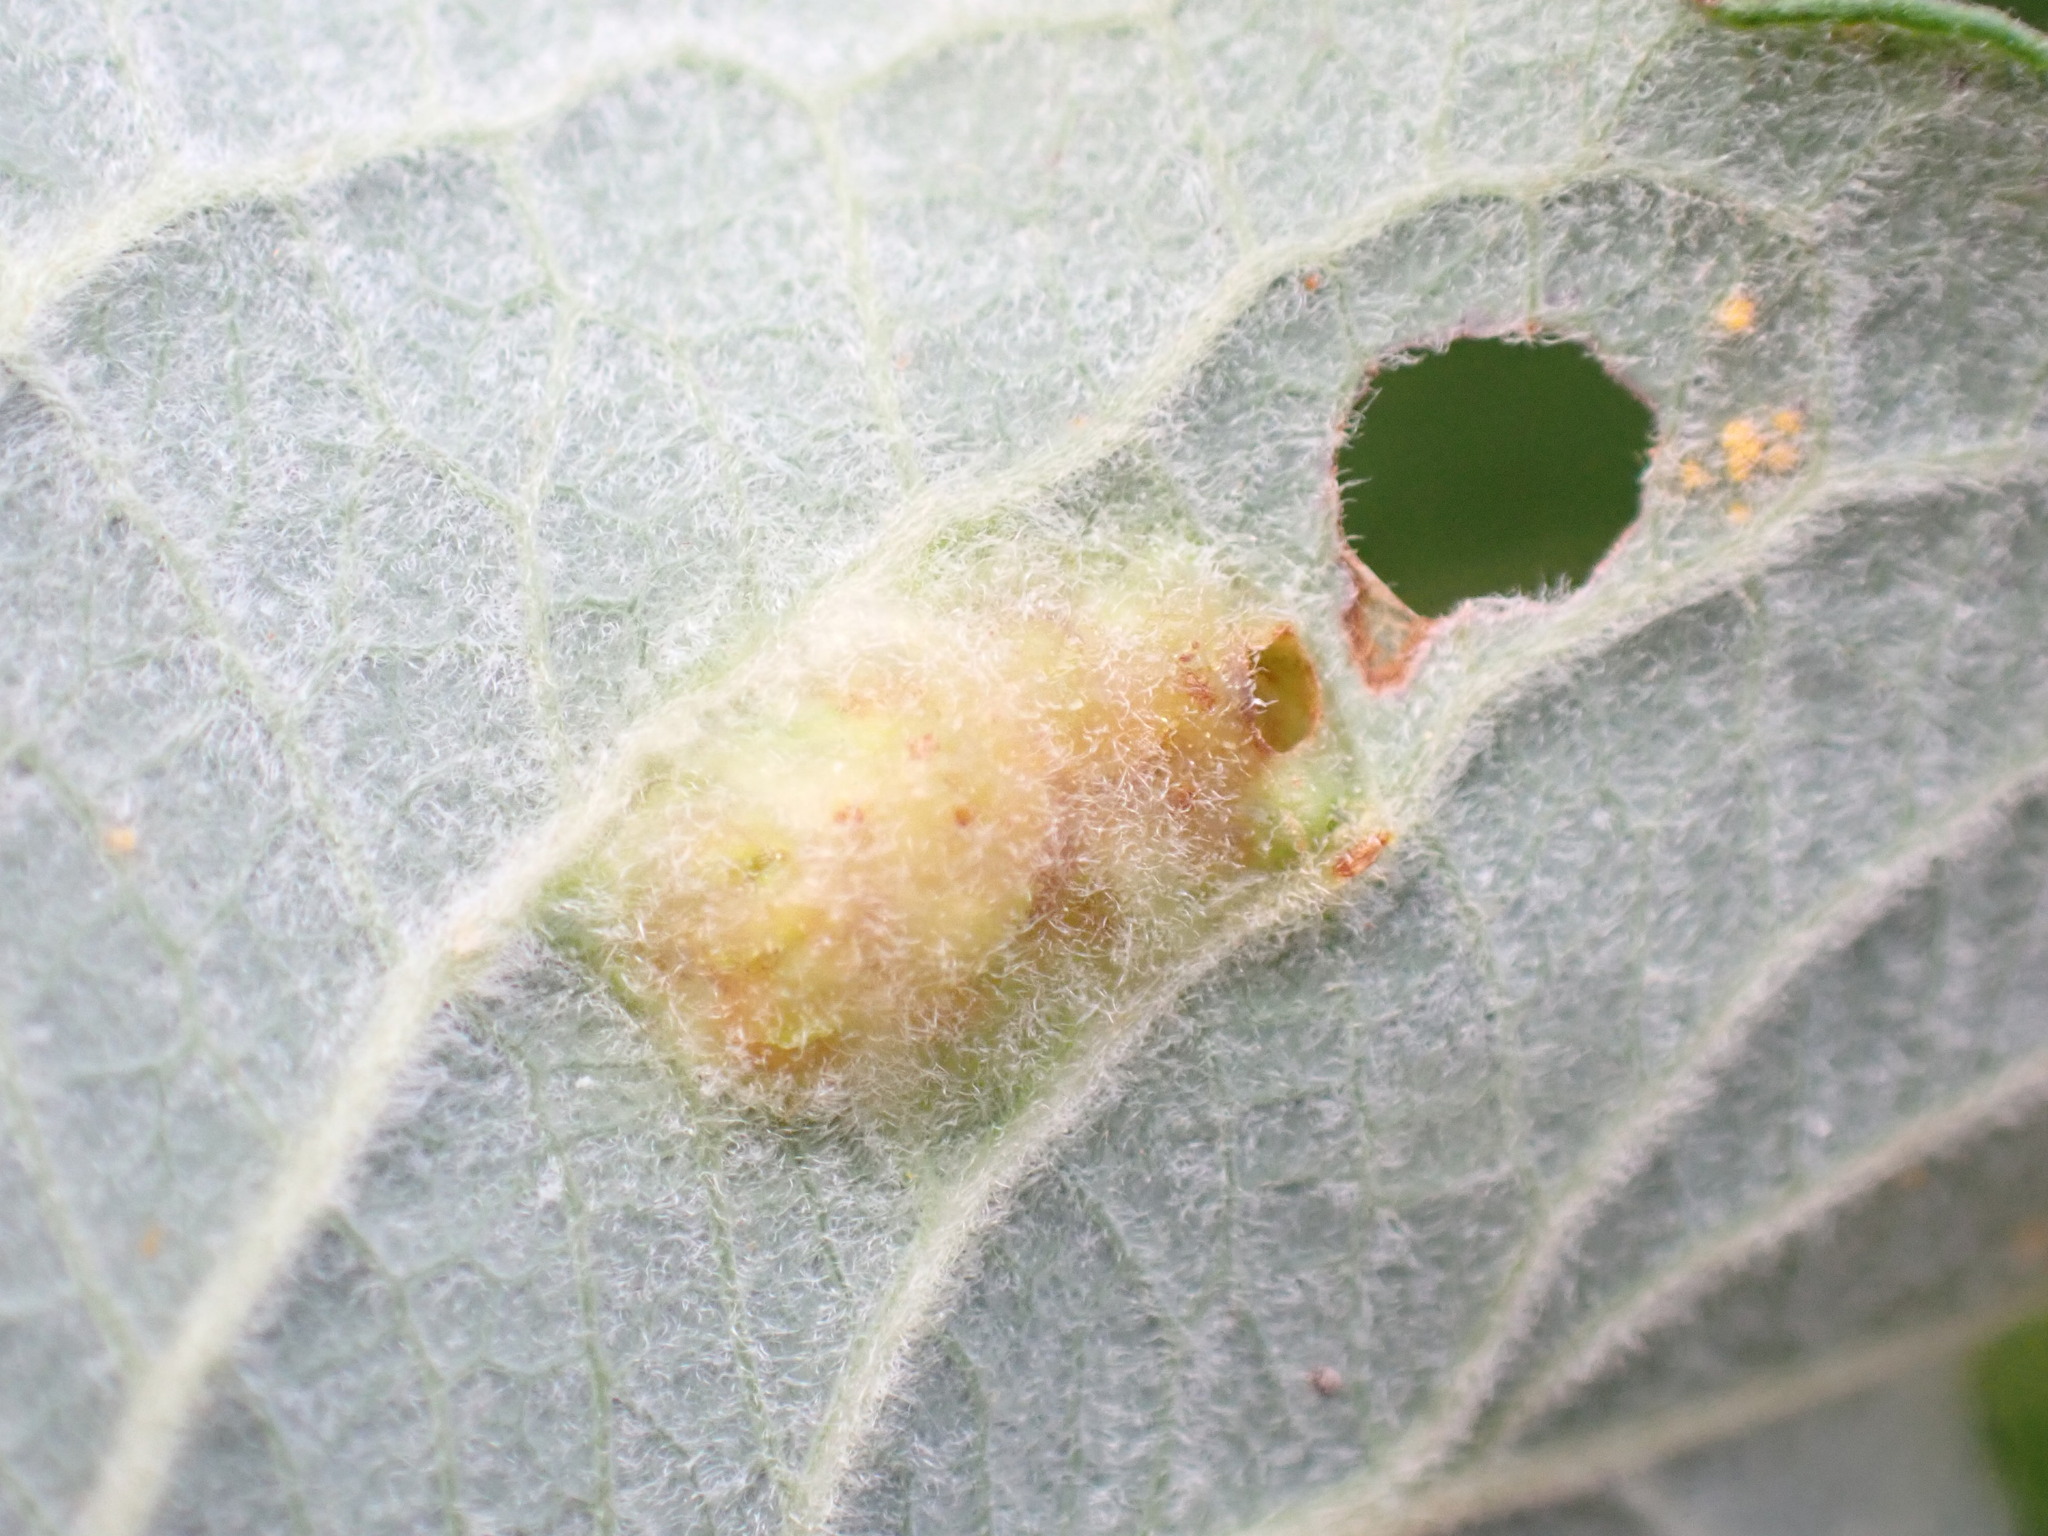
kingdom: Animalia
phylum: Arthropoda
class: Insecta
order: Hymenoptera
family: Tenthredinidae
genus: Pontania
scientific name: Pontania bridgmanii
